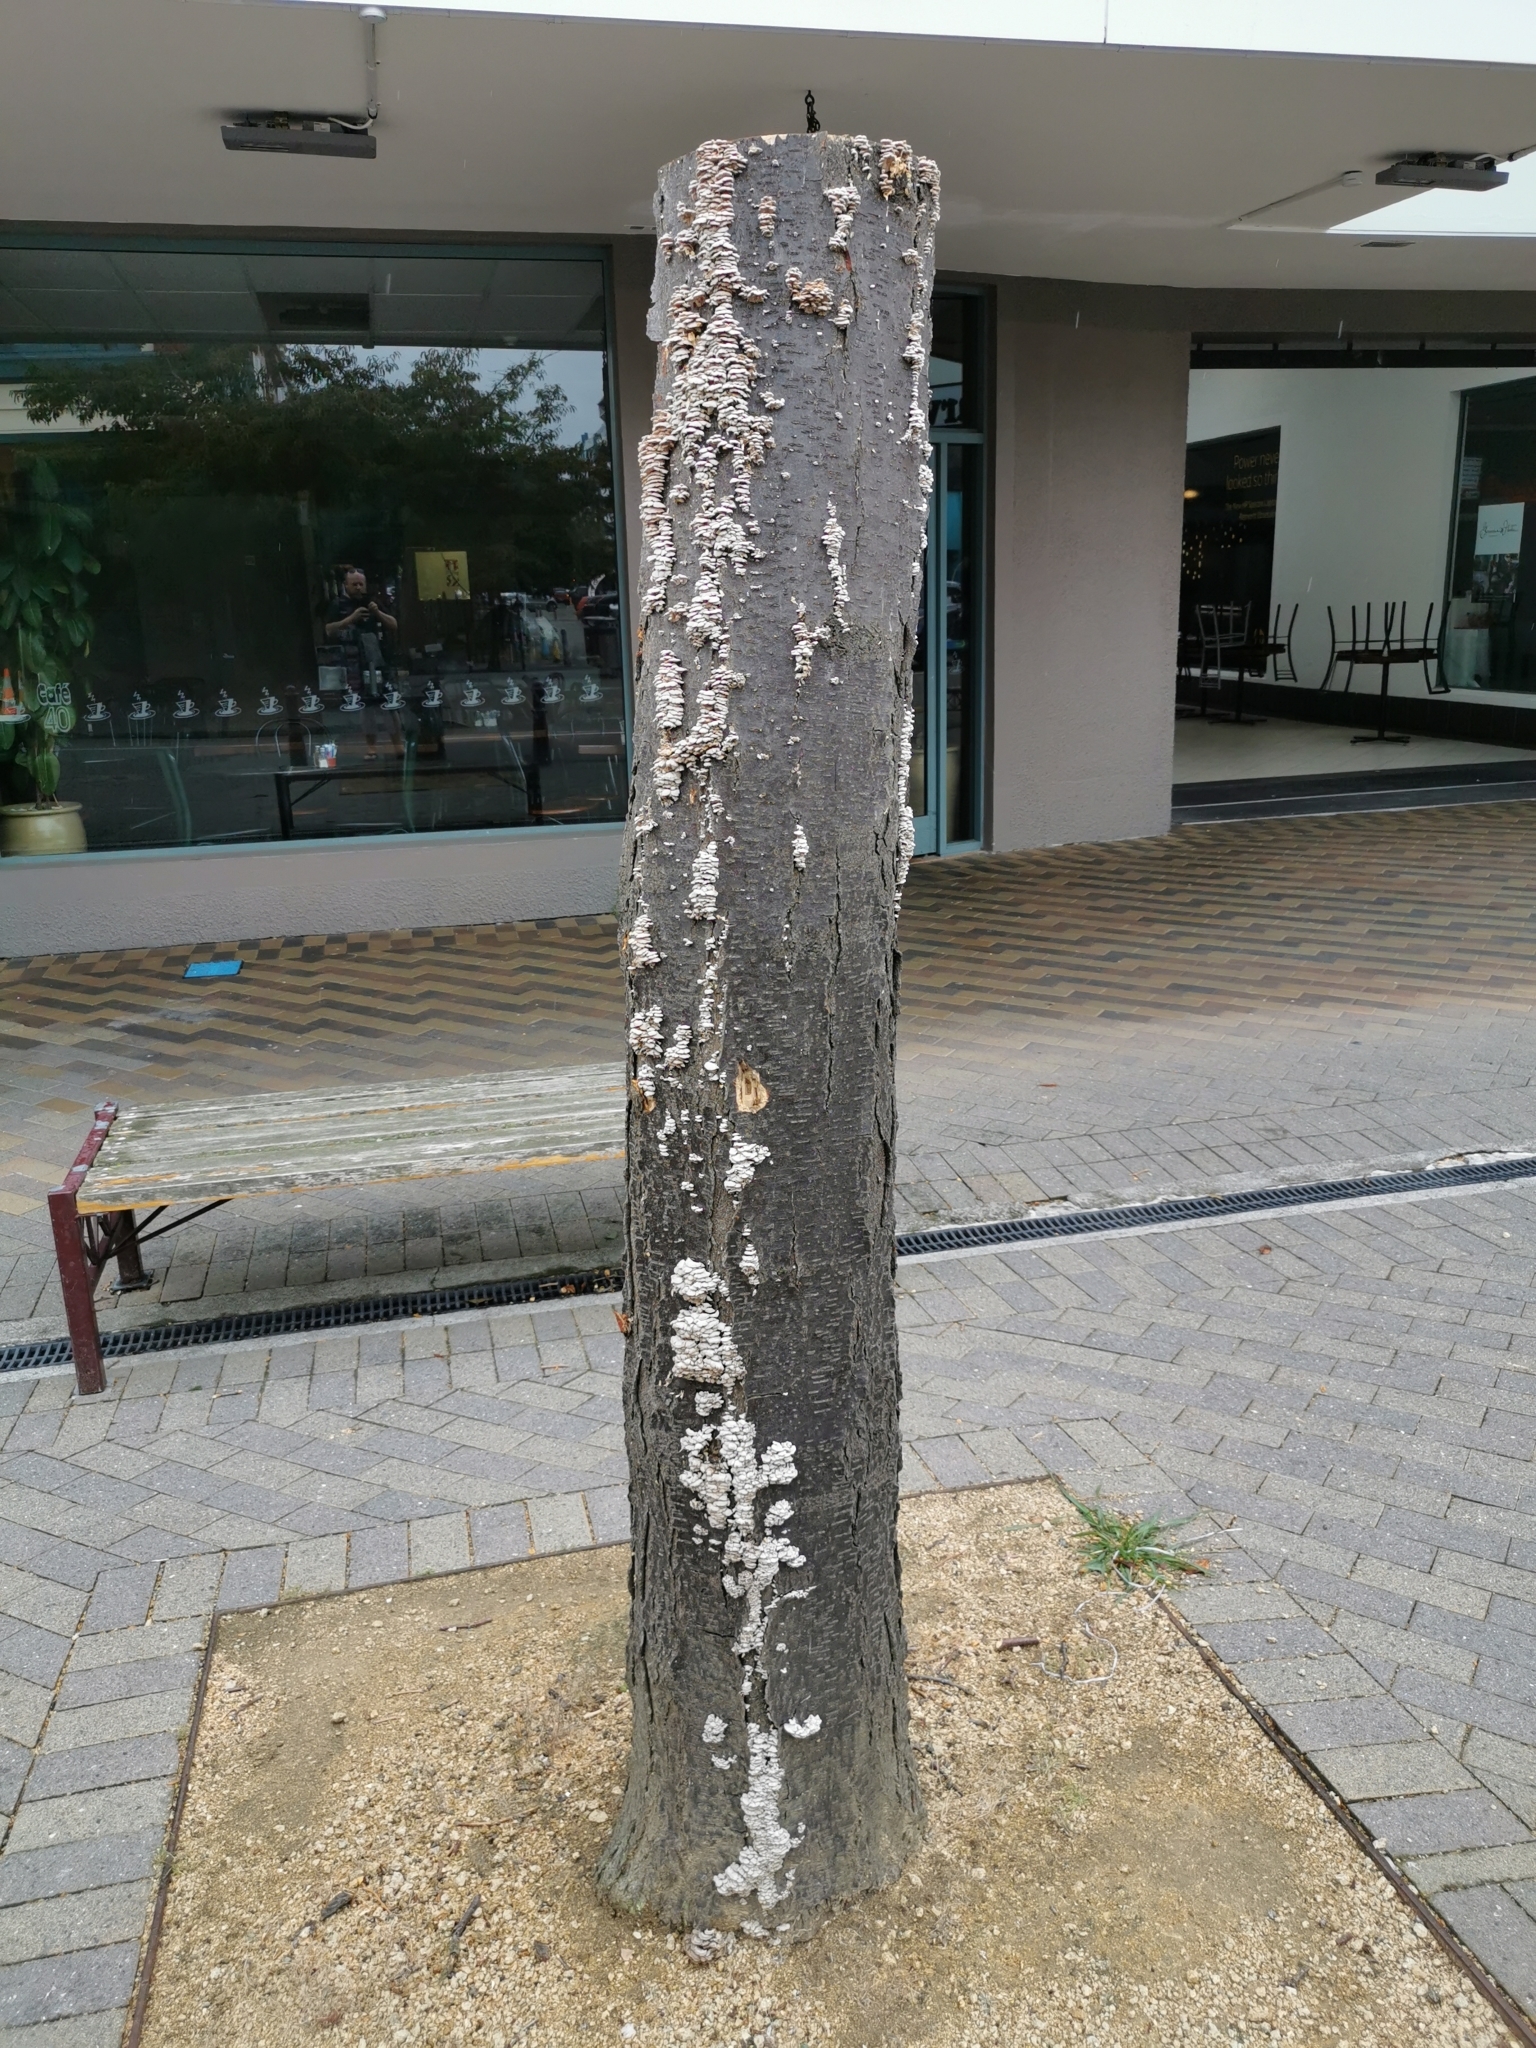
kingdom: Fungi
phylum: Basidiomycota
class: Agaricomycetes
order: Agaricales
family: Schizophyllaceae
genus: Schizophyllum
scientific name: Schizophyllum commune
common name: Common porecrust
